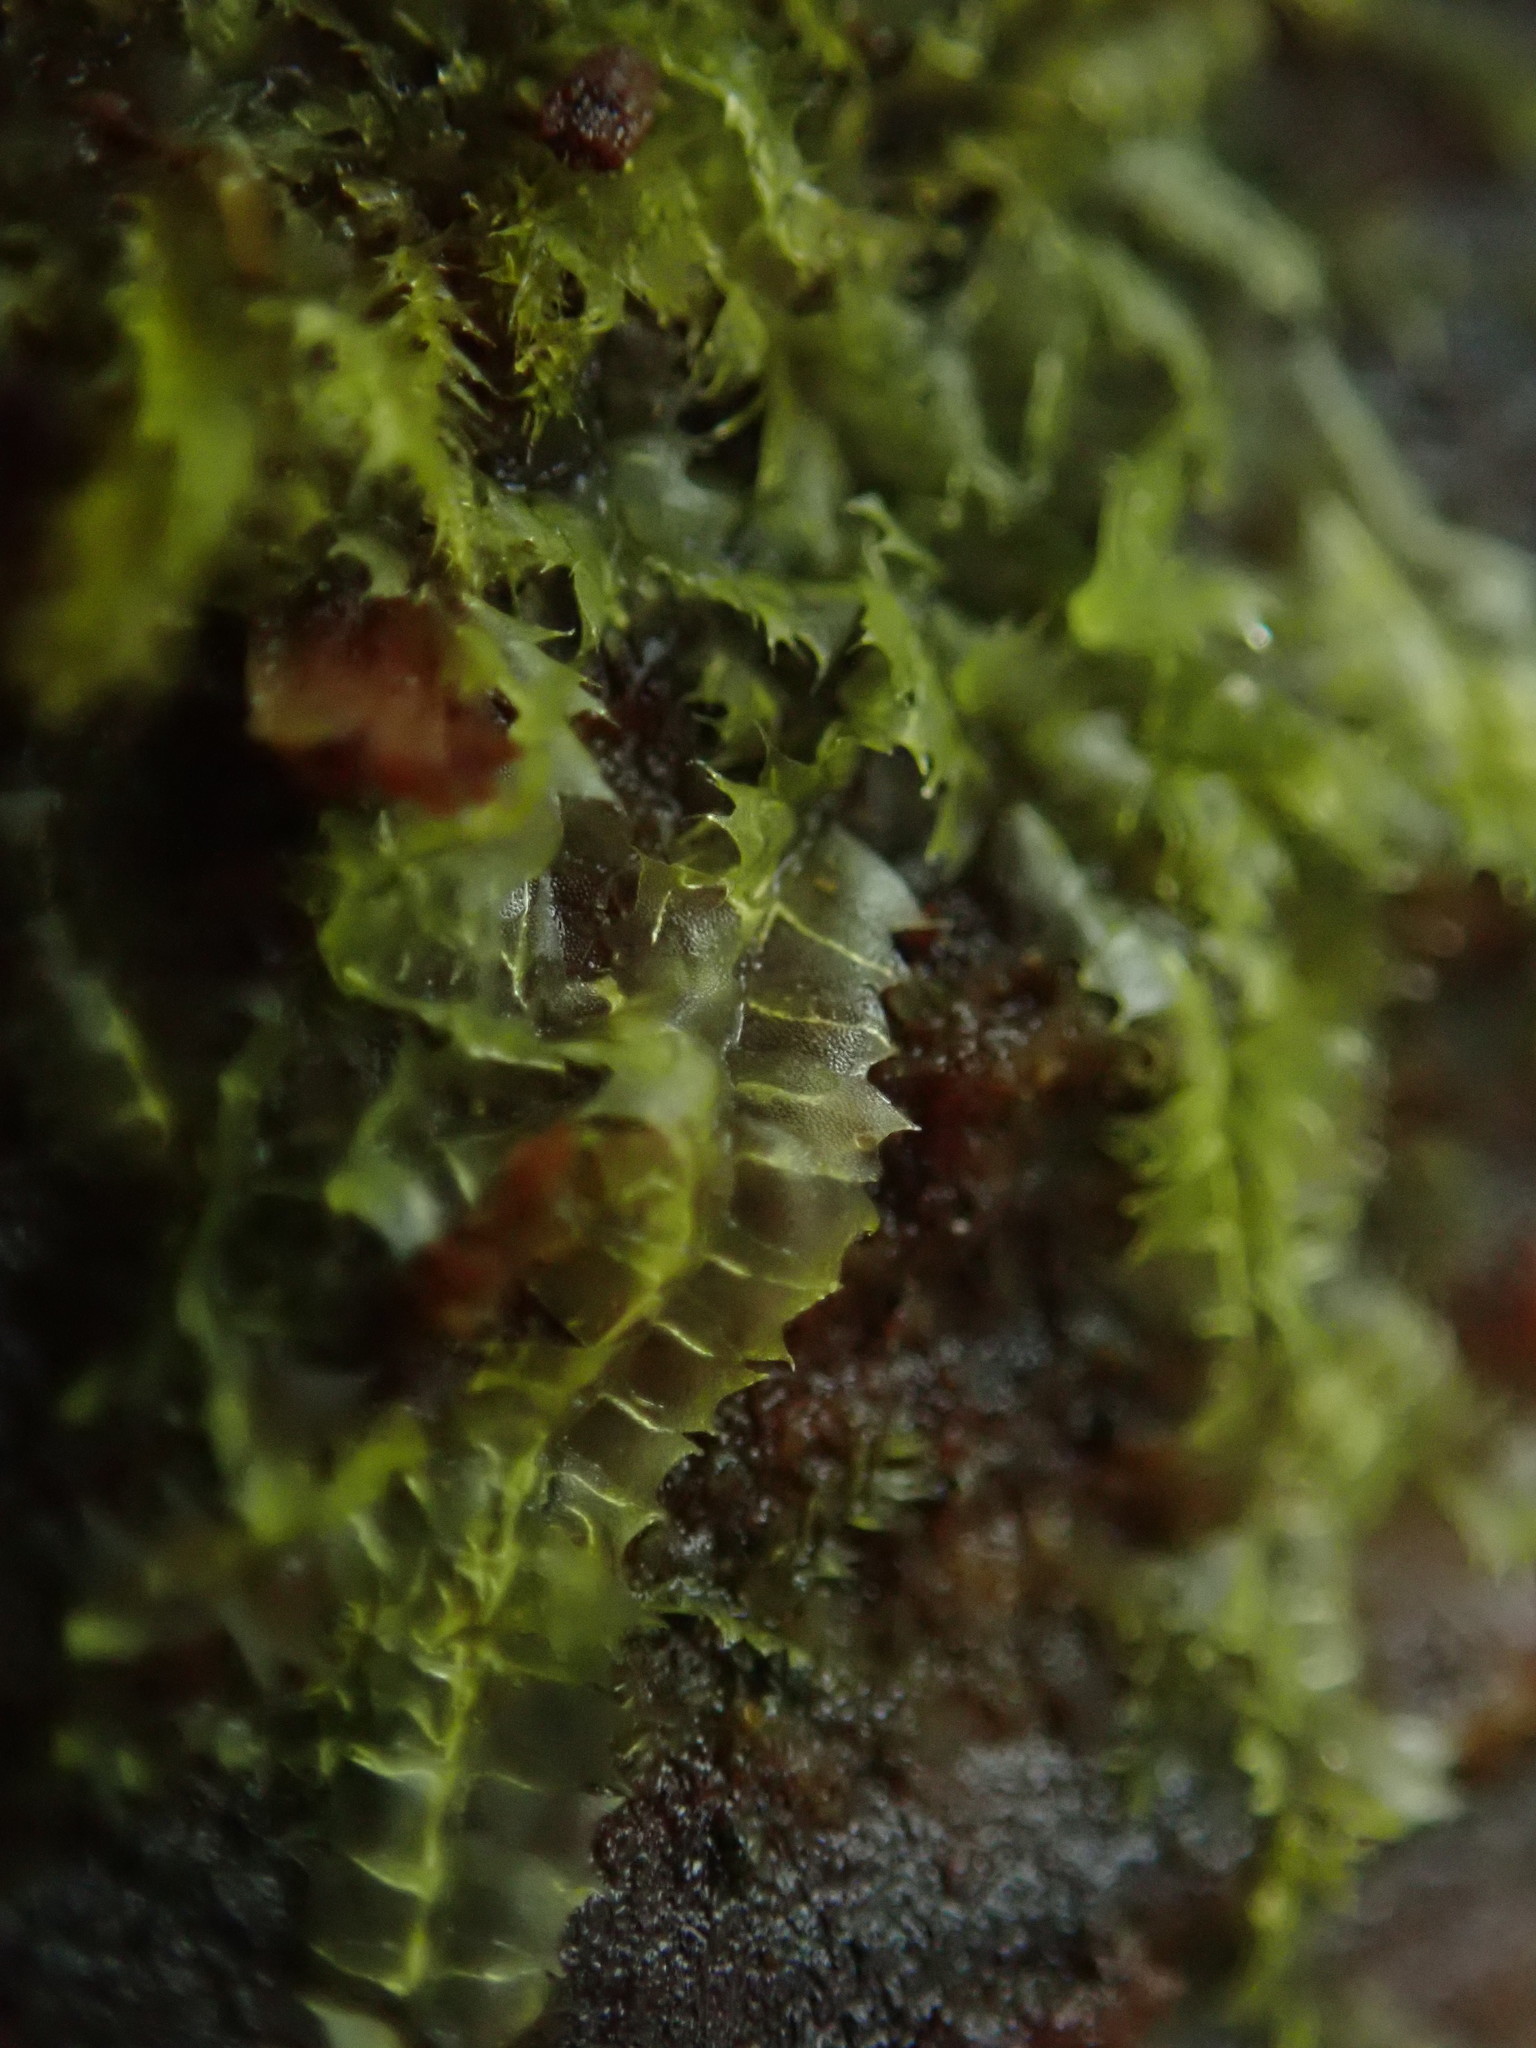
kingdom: Plantae
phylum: Marchantiophyta
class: Jungermanniopsida
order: Jungermanniales
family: Lophocoleaceae
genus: Lophocolea
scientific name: Lophocolea bidentata
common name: Bifid crestwort
